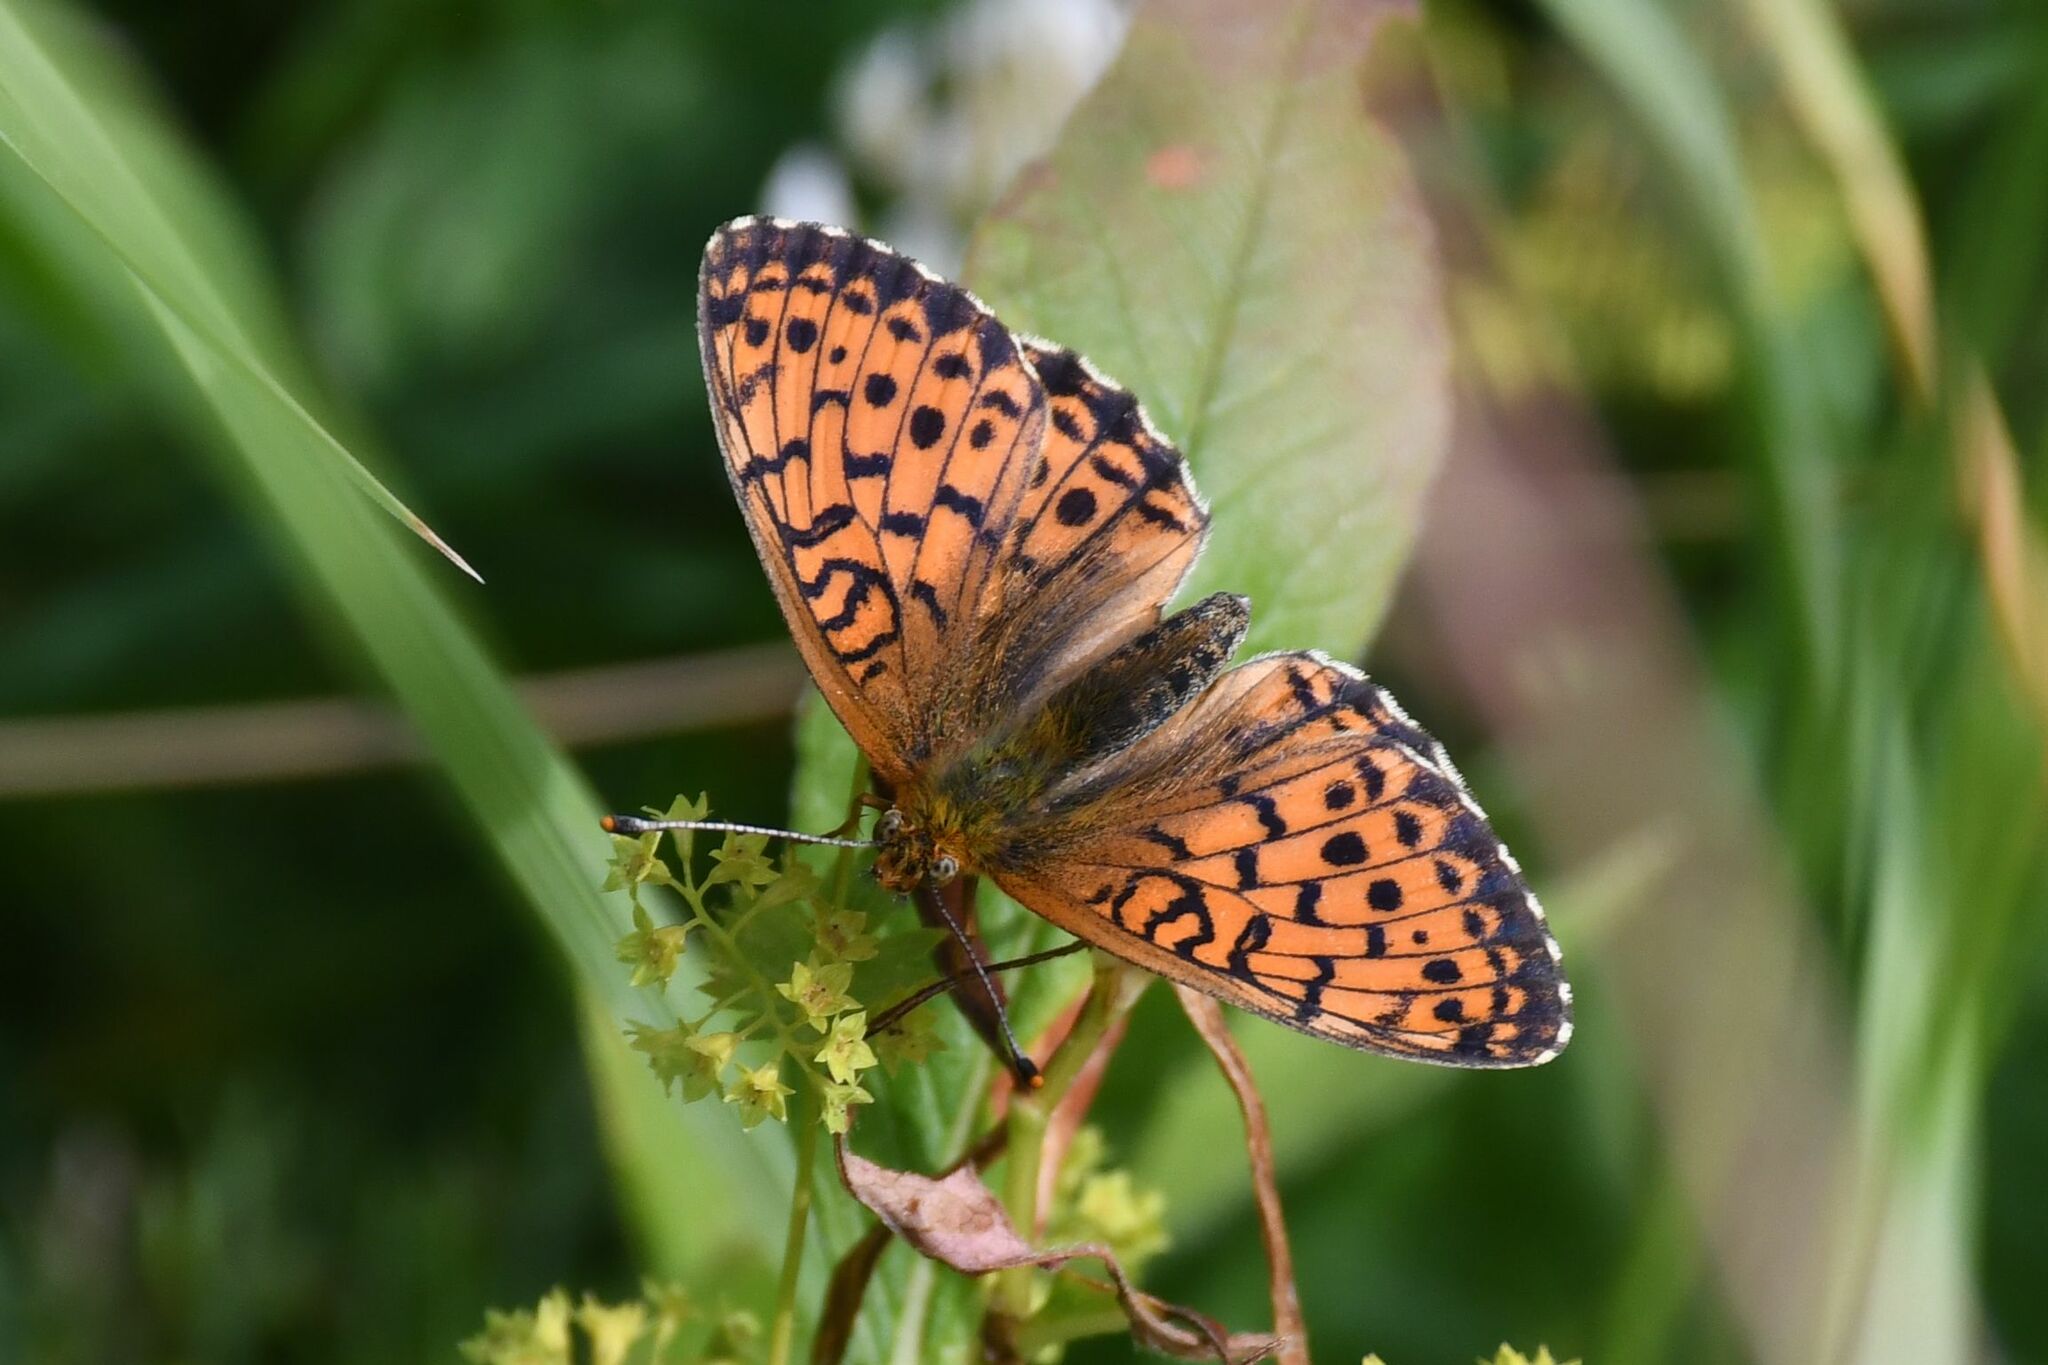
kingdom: Animalia
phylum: Arthropoda
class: Insecta
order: Lepidoptera
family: Nymphalidae
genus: Brenthis
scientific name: Brenthis ino
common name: Lesser marbled fritillary
